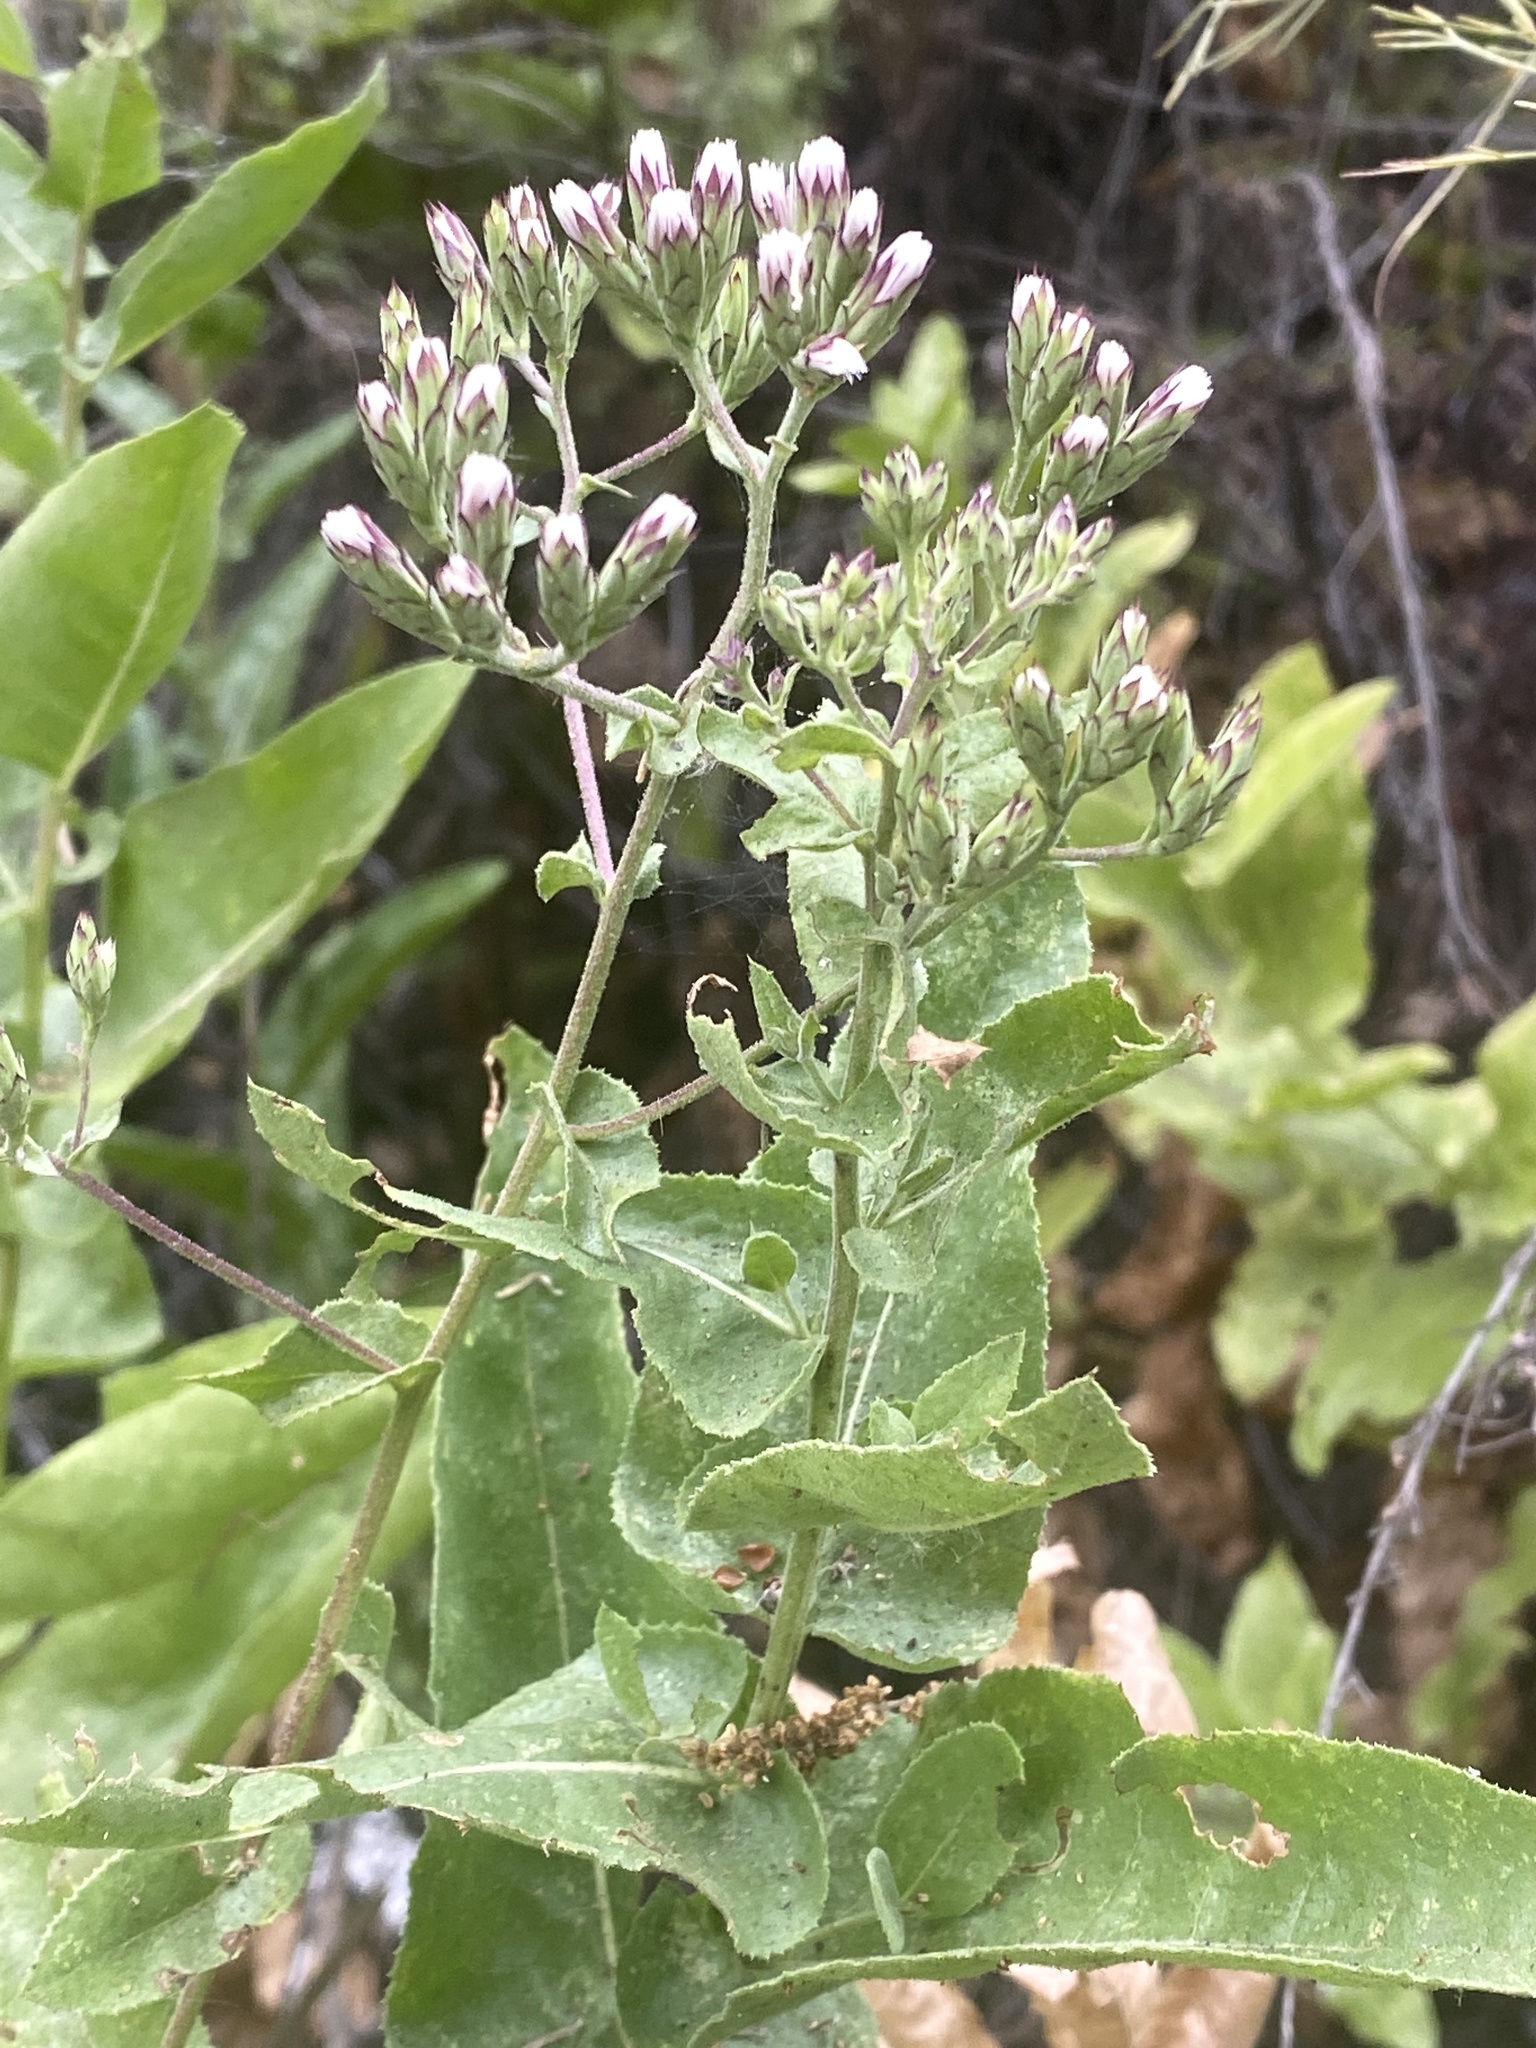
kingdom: Plantae
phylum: Tracheophyta
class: Magnoliopsida
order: Asterales
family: Asteraceae
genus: Acourtia
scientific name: Acourtia microcephala
